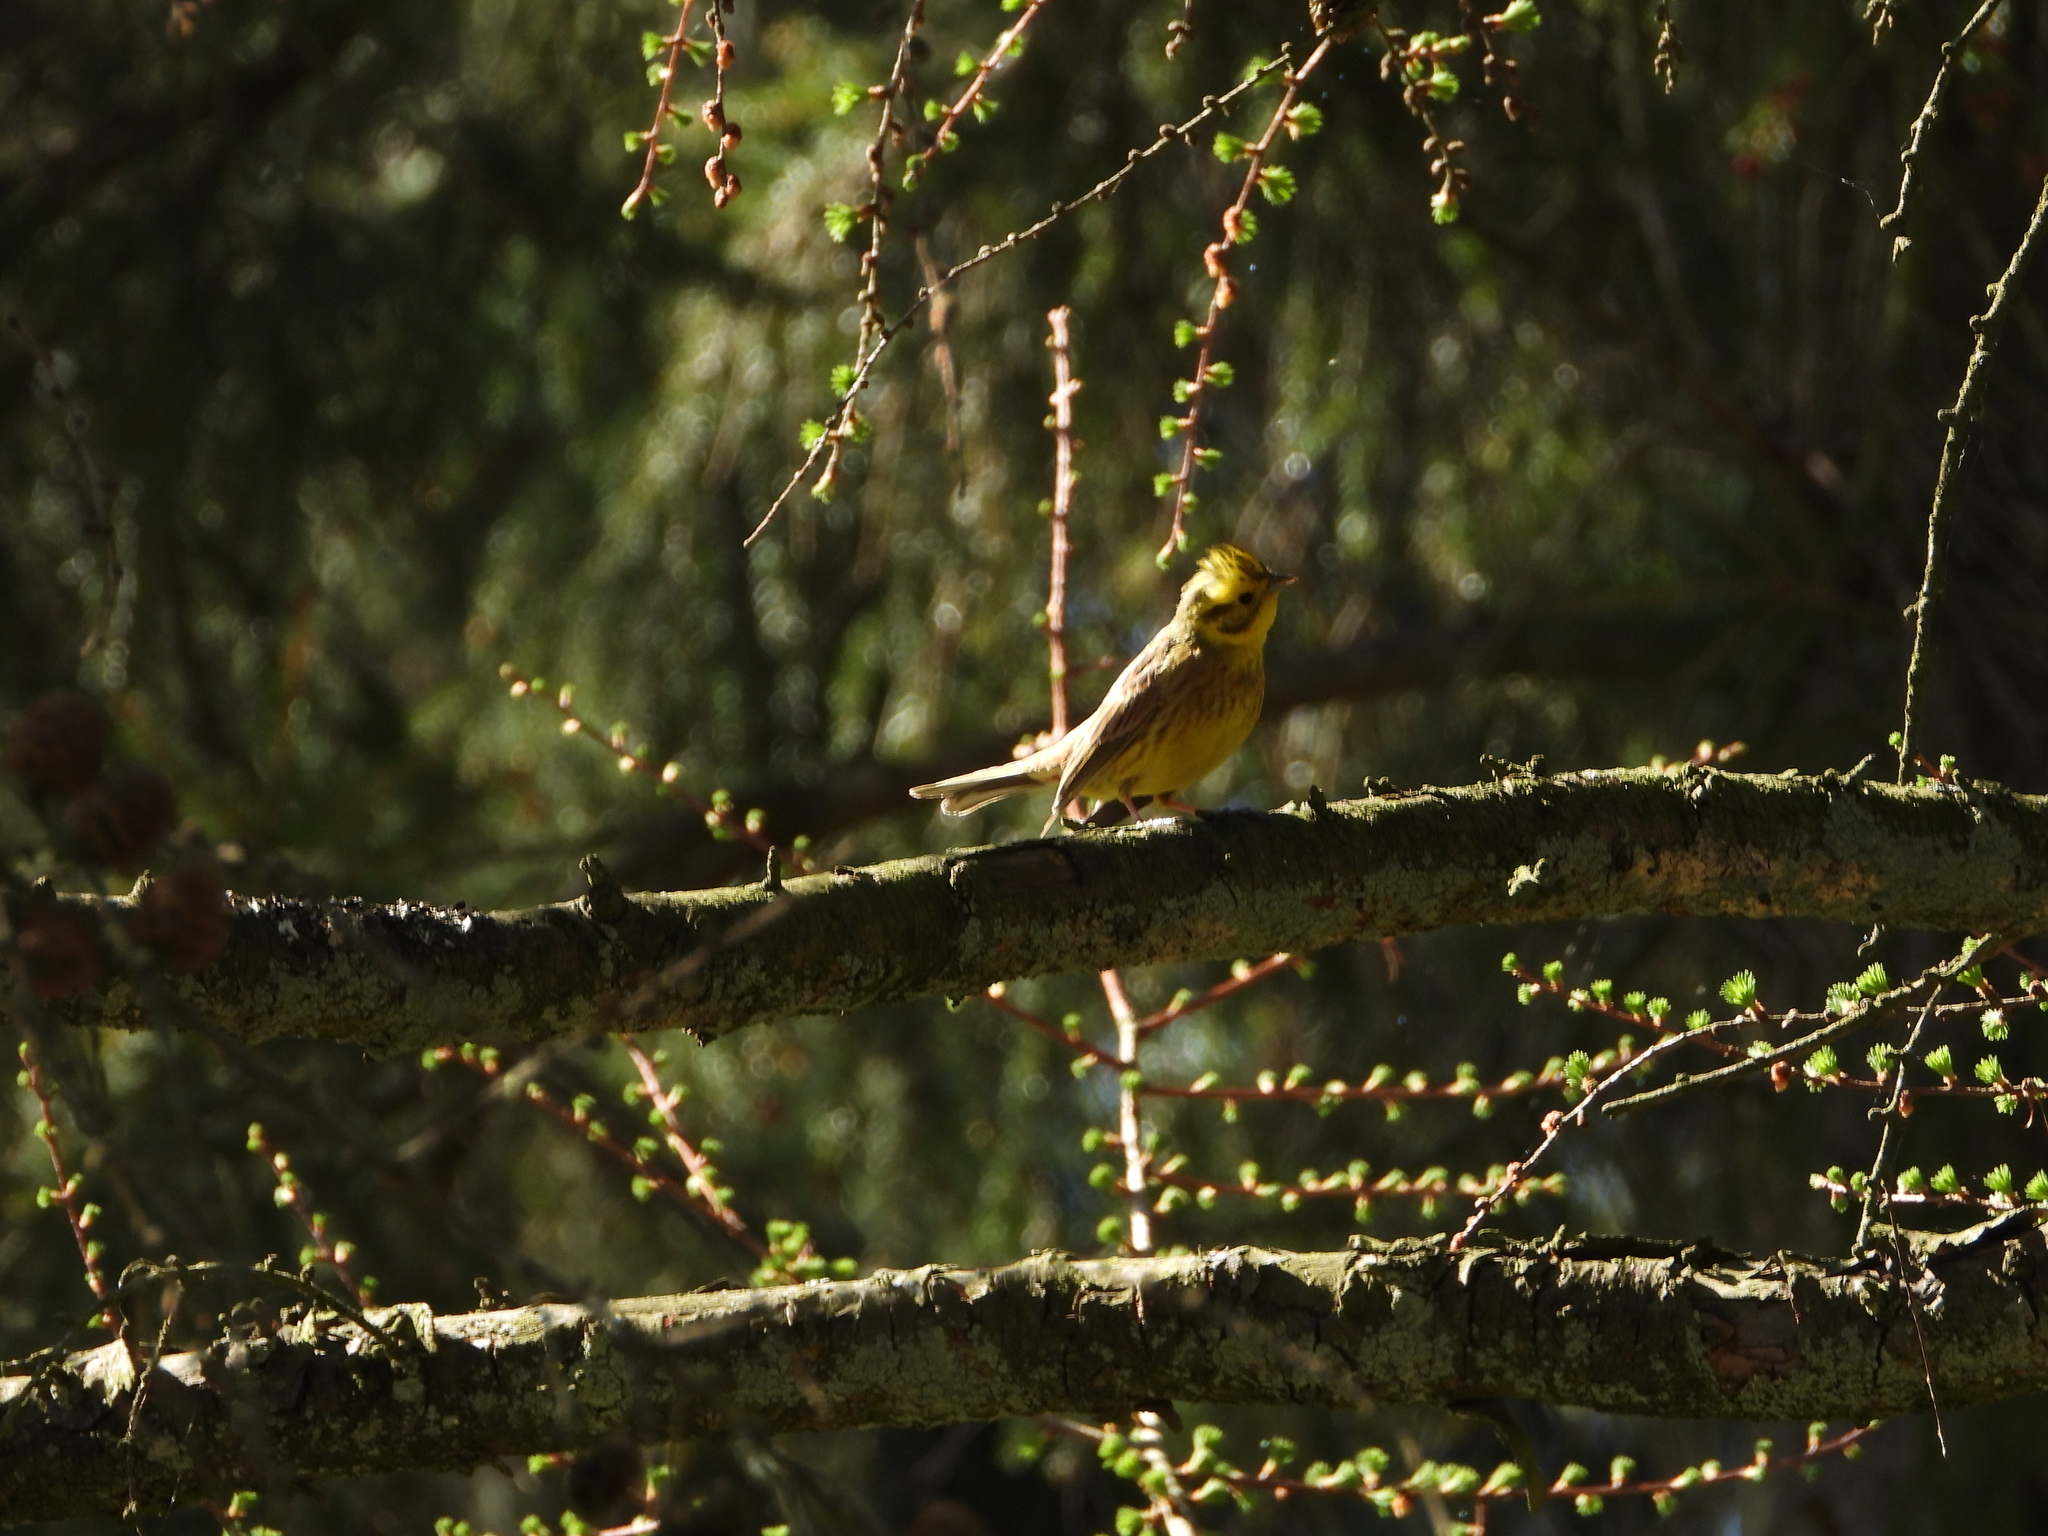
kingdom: Animalia
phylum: Chordata
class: Aves
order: Passeriformes
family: Emberizidae
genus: Emberiza
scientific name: Emberiza citrinella
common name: Yellowhammer
